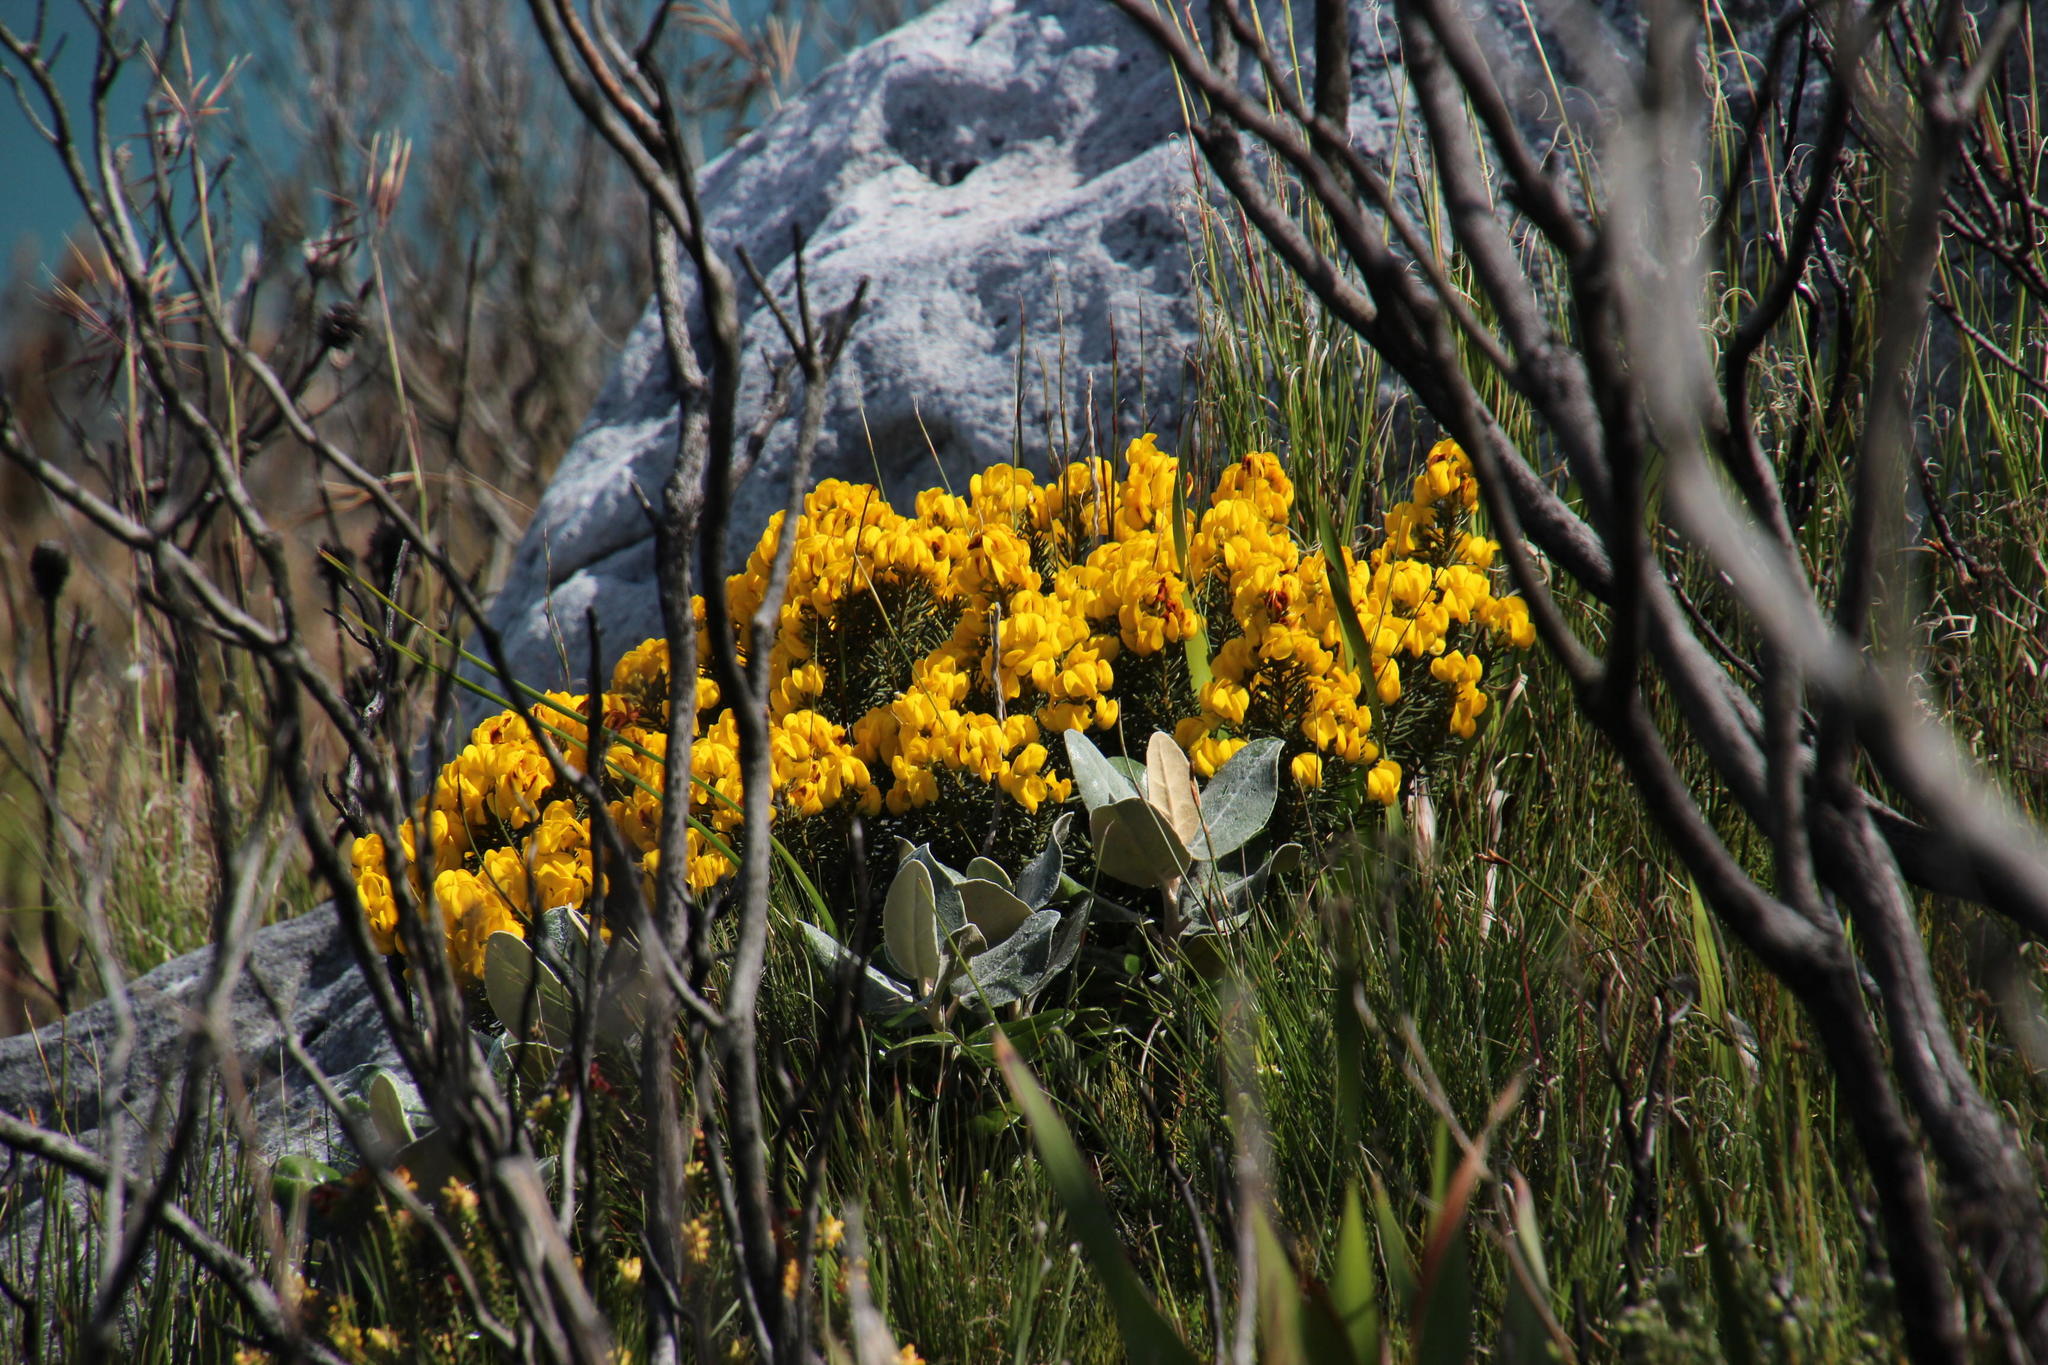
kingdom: Plantae
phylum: Tracheophyta
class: Magnoliopsida
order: Fabales
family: Fabaceae
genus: Cyclopia
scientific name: Cyclopia genistoides
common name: Honeybush tea
